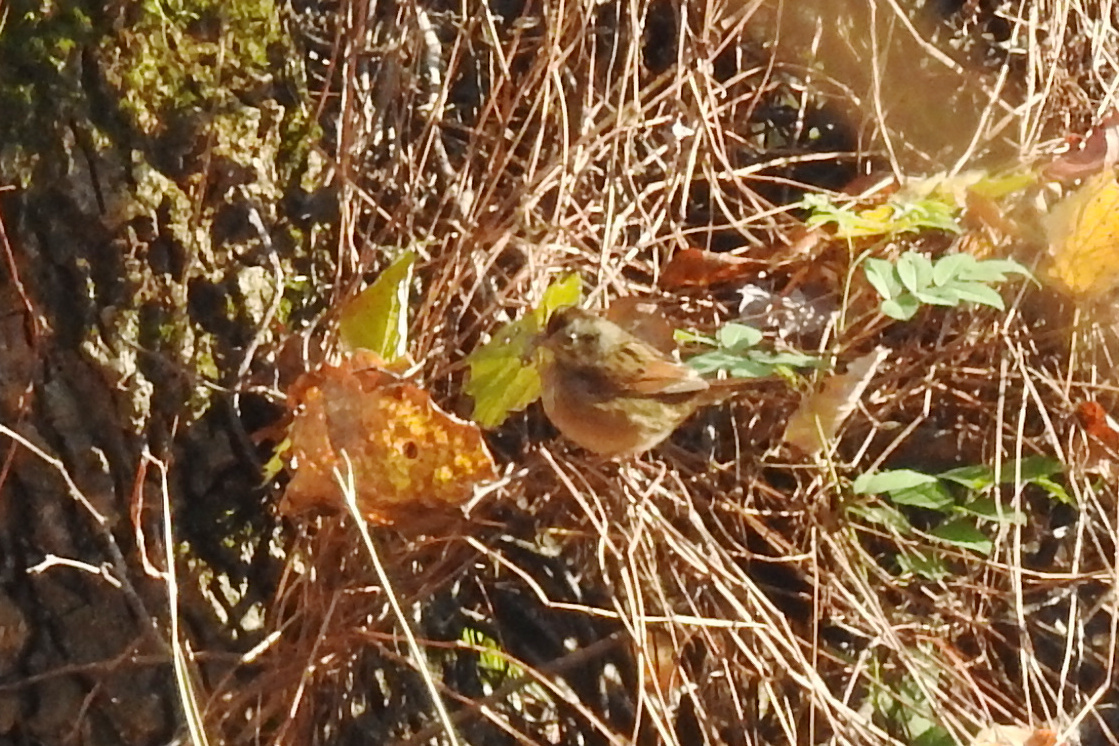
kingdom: Animalia
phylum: Chordata
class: Aves
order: Passeriformes
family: Passerellidae
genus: Melospiza
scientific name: Melospiza georgiana
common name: Swamp sparrow
